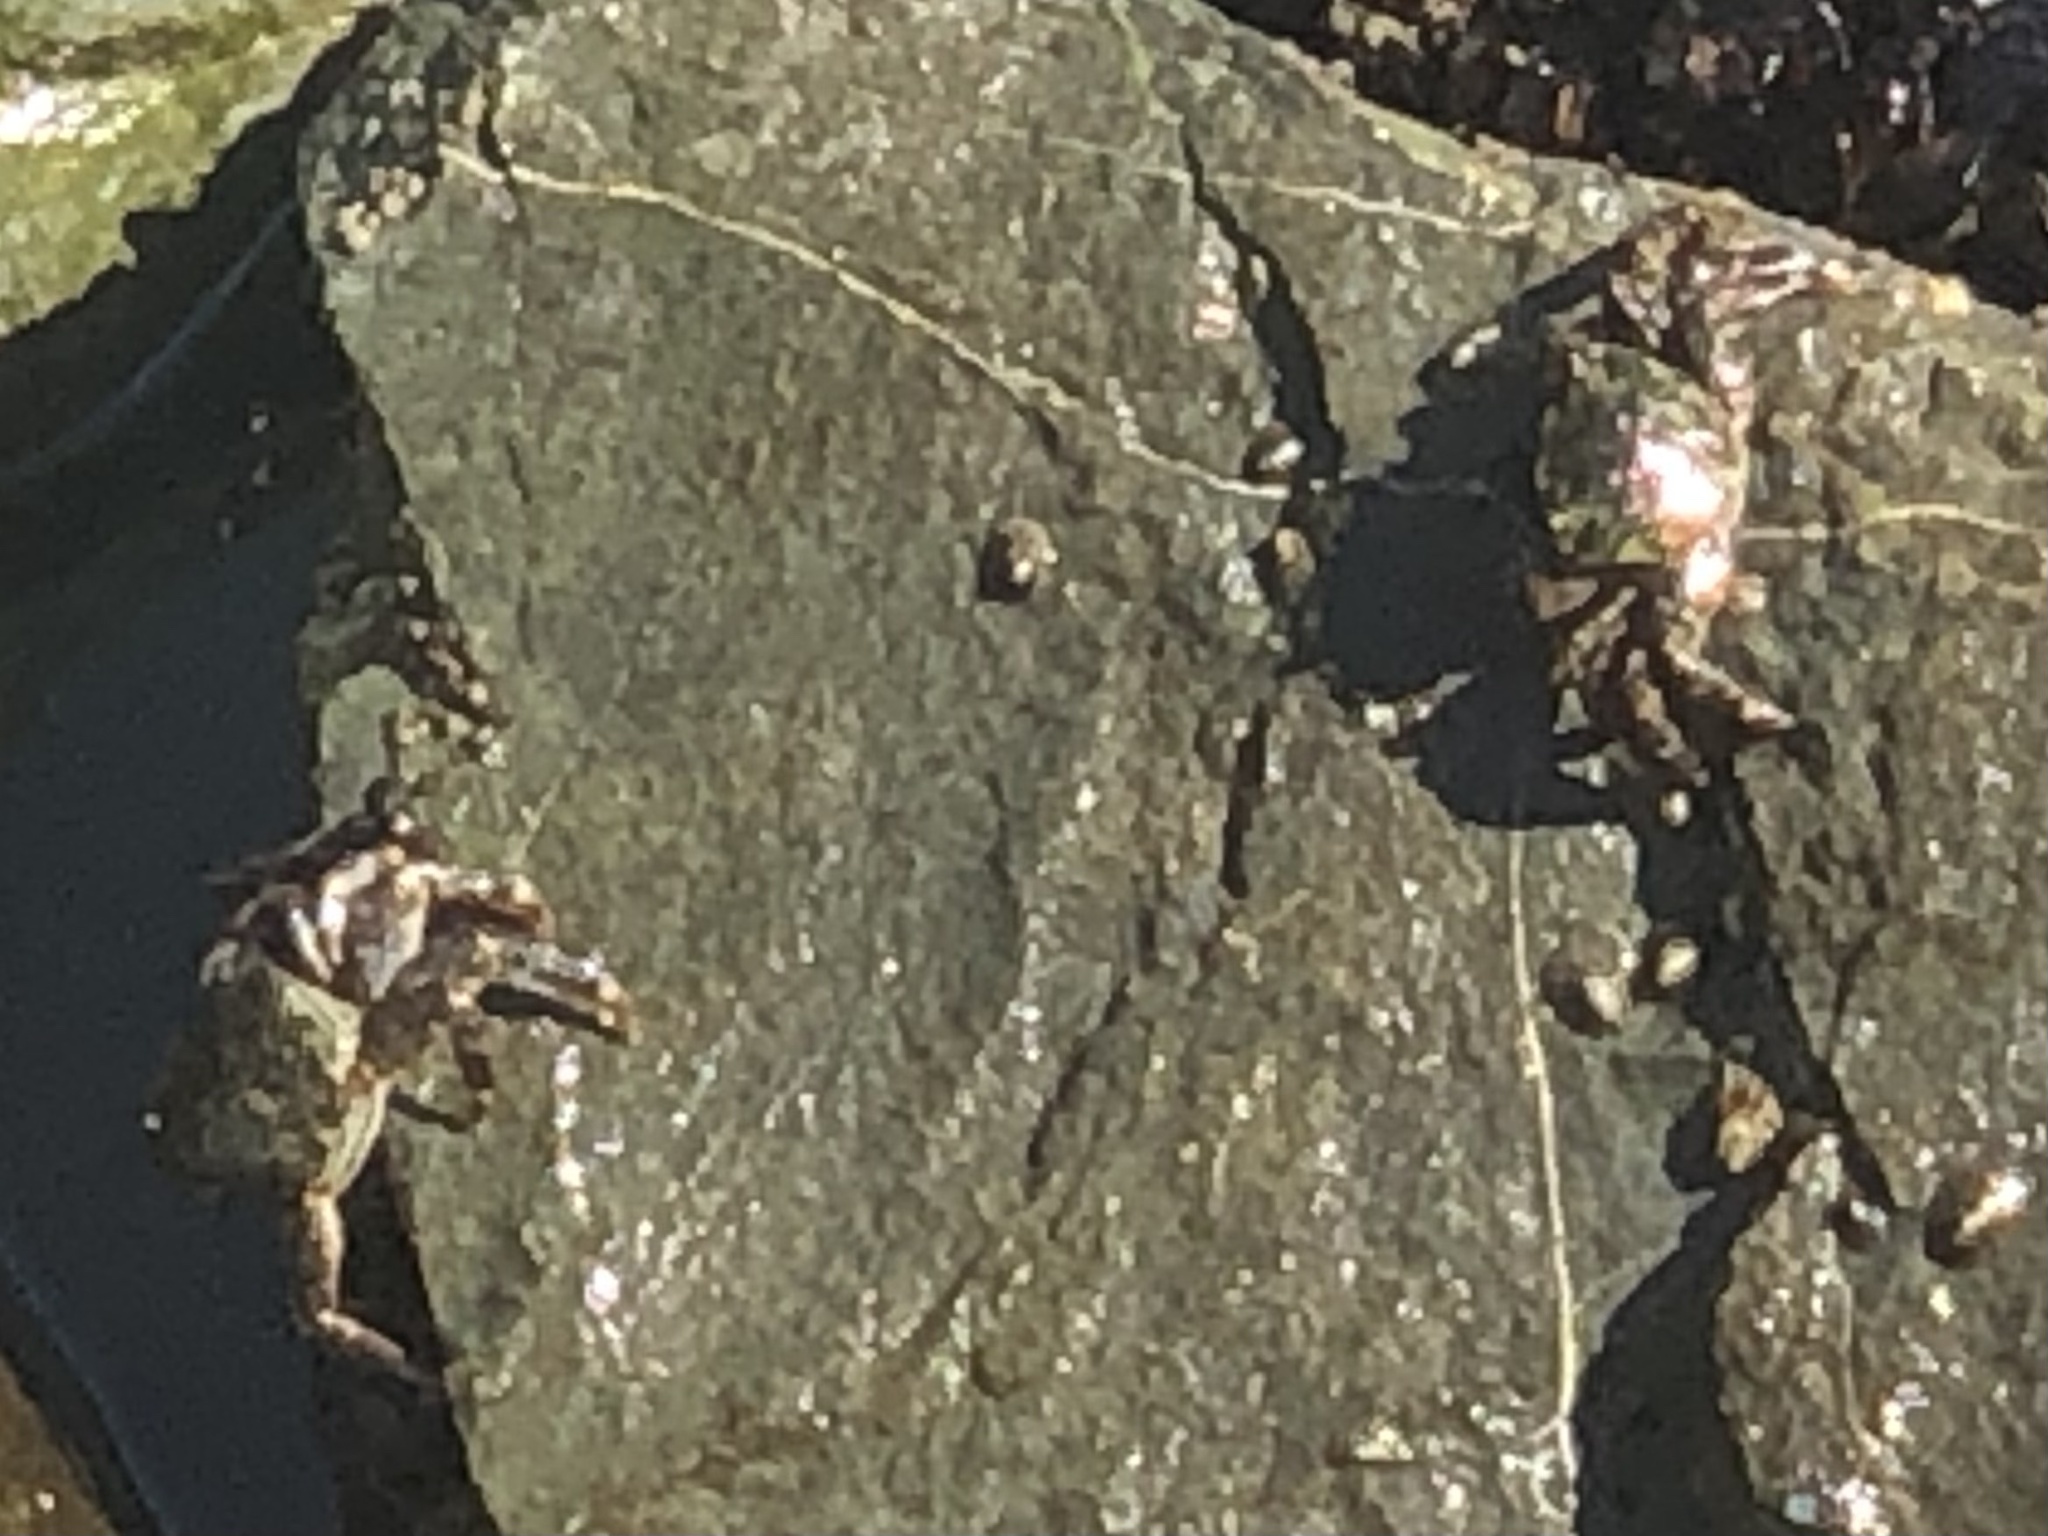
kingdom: Animalia
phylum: Arthropoda
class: Malacostraca
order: Decapoda
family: Grapsidae
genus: Pachygrapsus
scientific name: Pachygrapsus crassipes
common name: Striped shore crab
